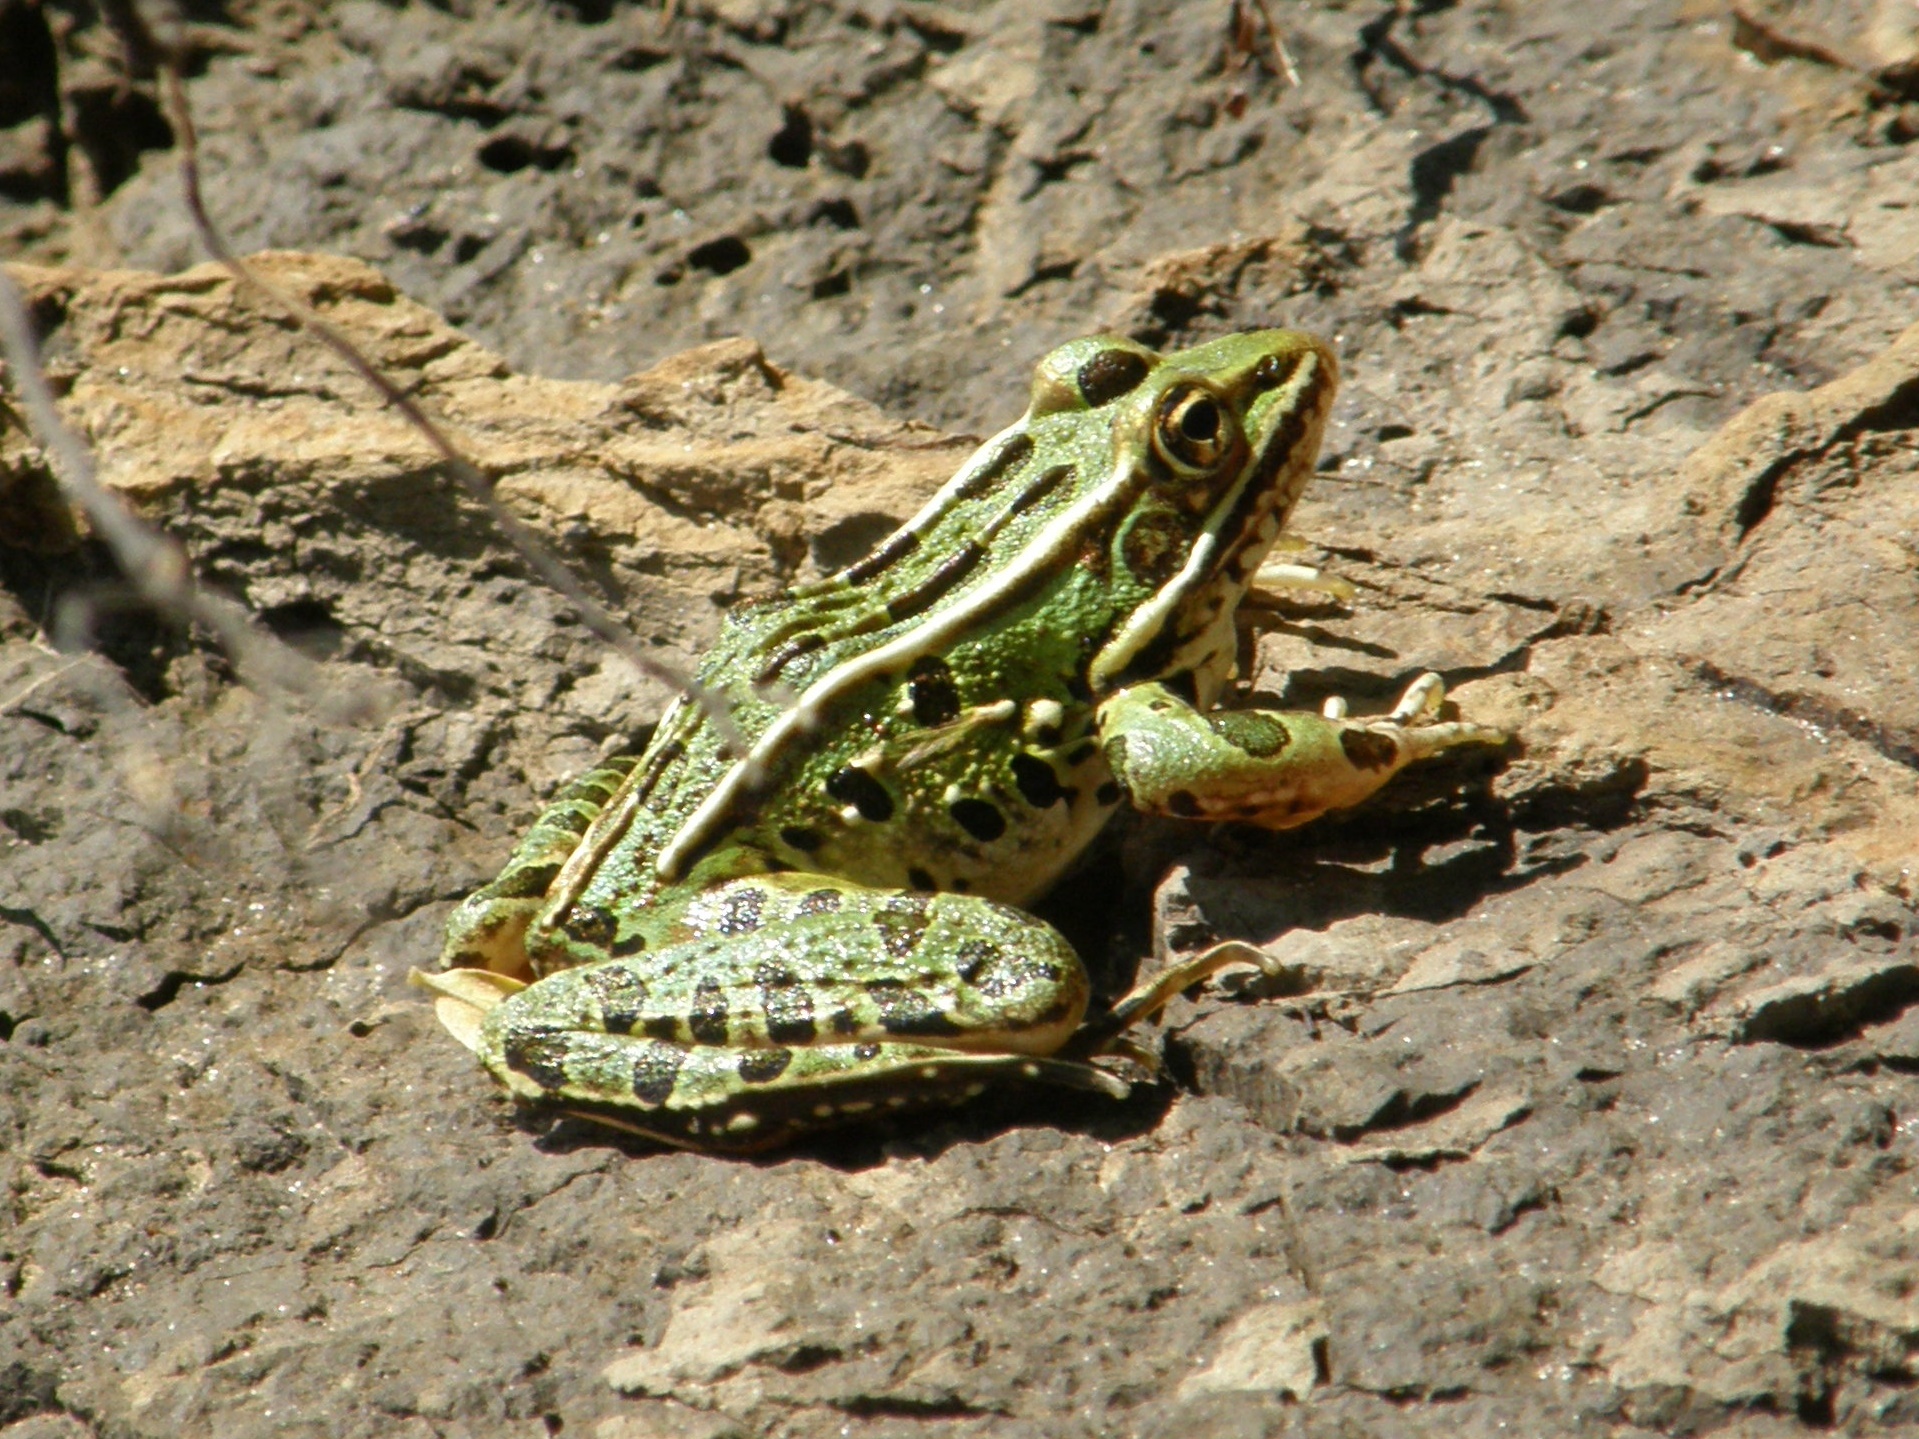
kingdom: Animalia
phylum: Chordata
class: Amphibia
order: Anura
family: Ranidae
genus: Lithobates
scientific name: Lithobates pipiens
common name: Northern leopard frog
